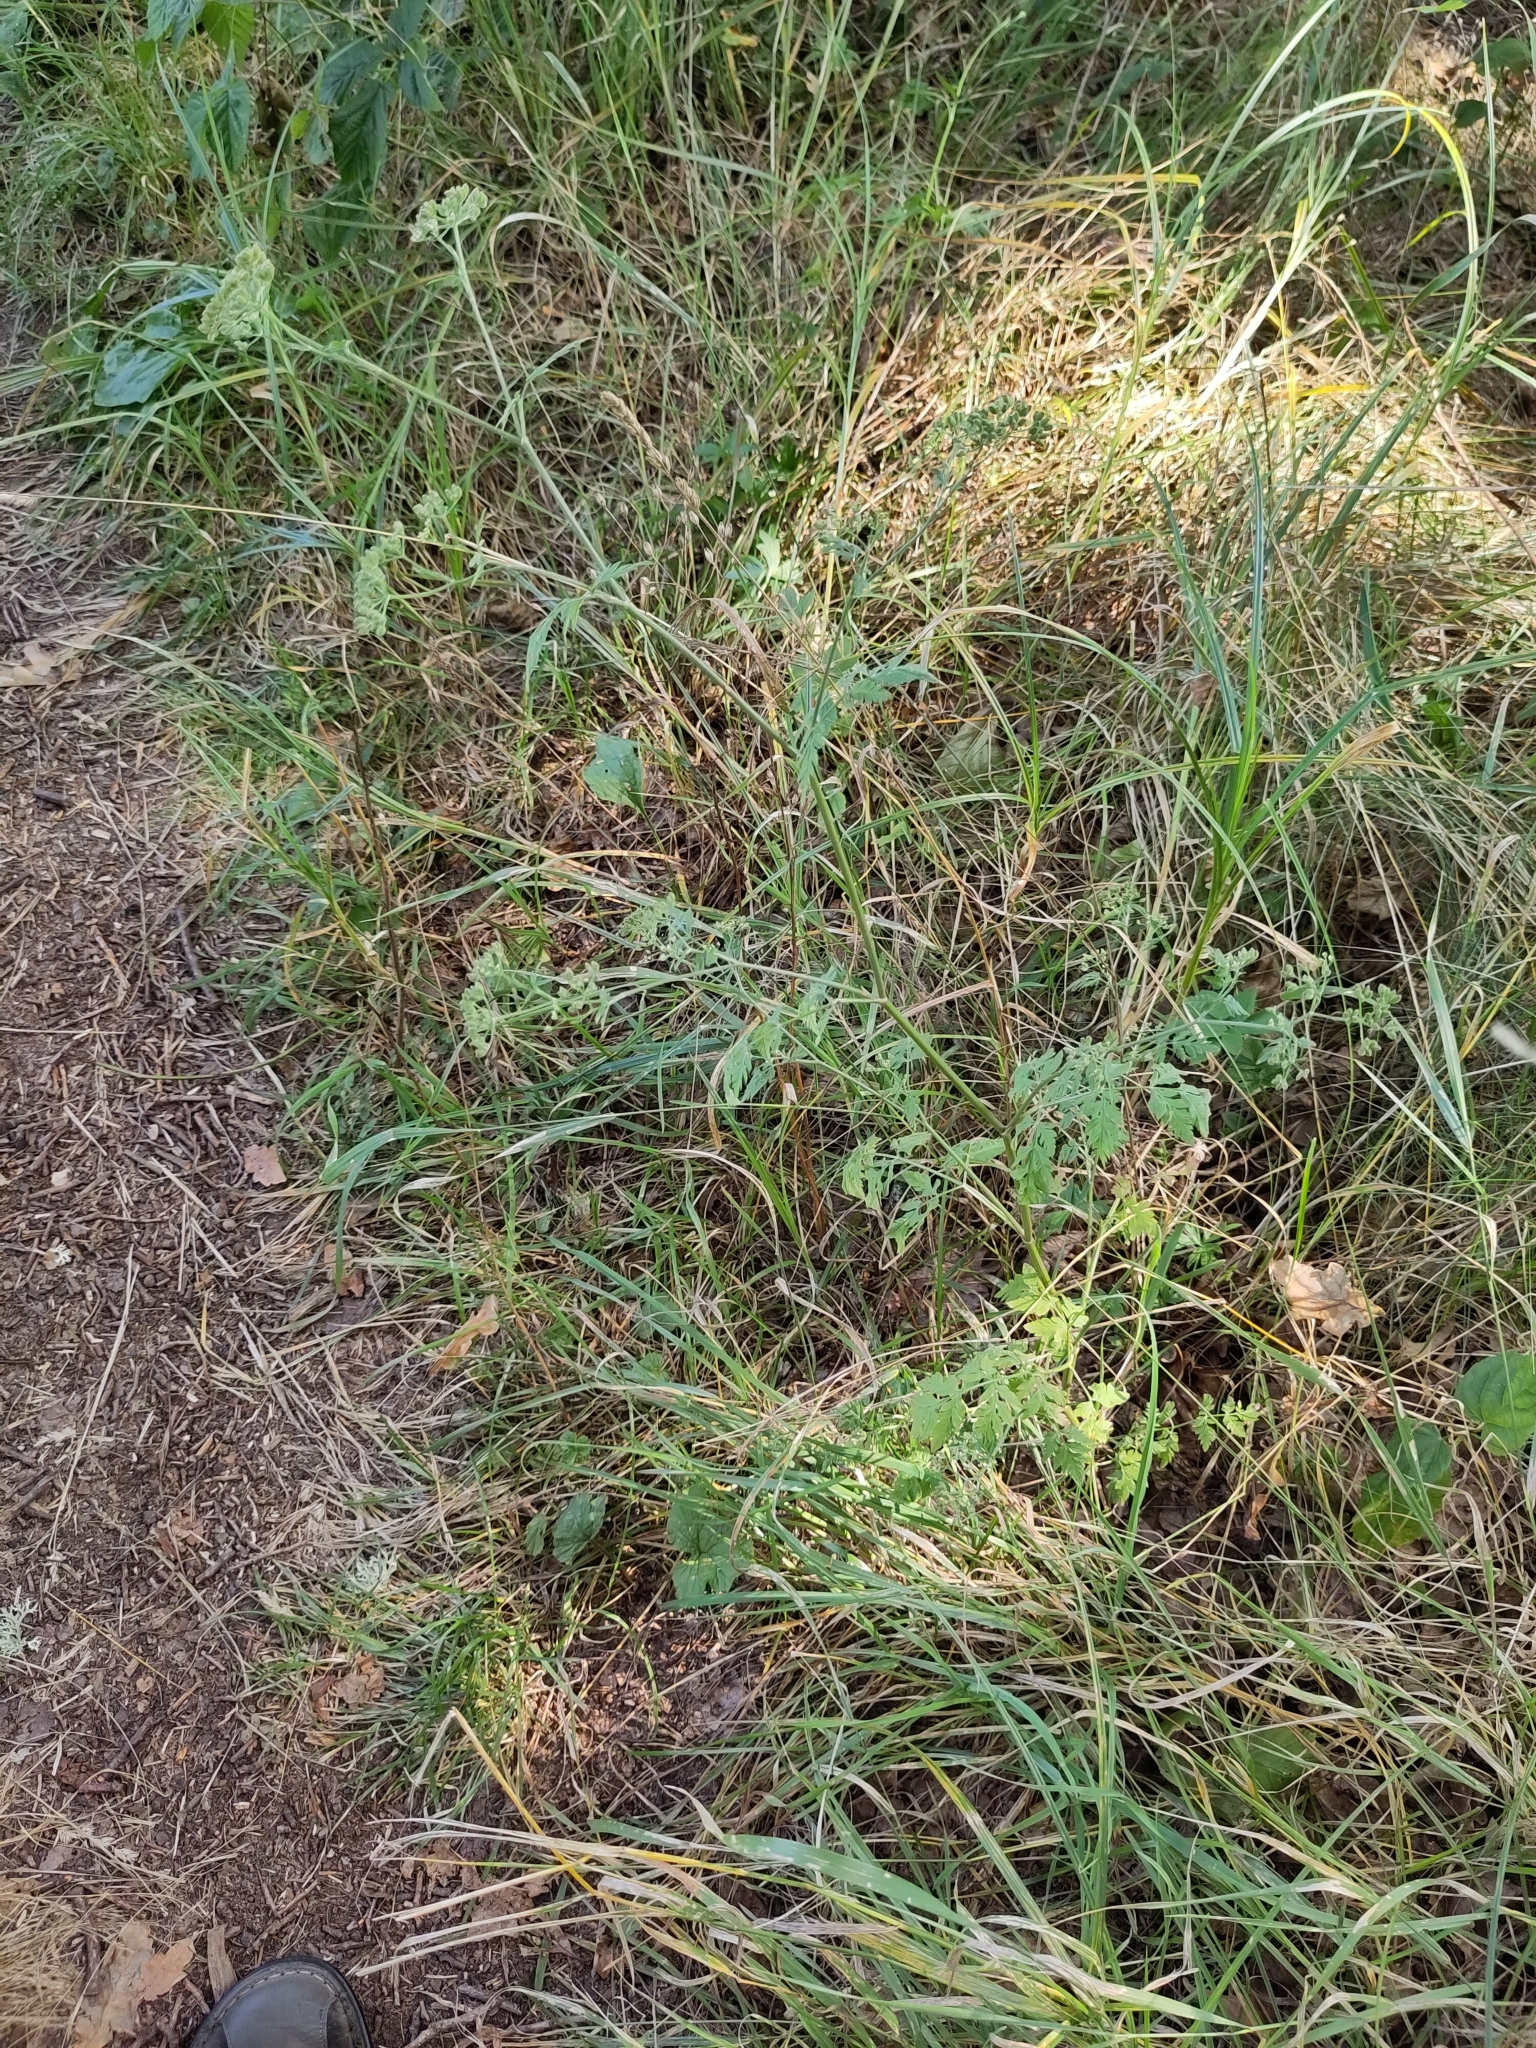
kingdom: Plantae
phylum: Tracheophyta
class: Magnoliopsida
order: Apiales
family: Apiaceae
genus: Torilis
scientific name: Torilis japonica
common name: Upright hedge-parsley
